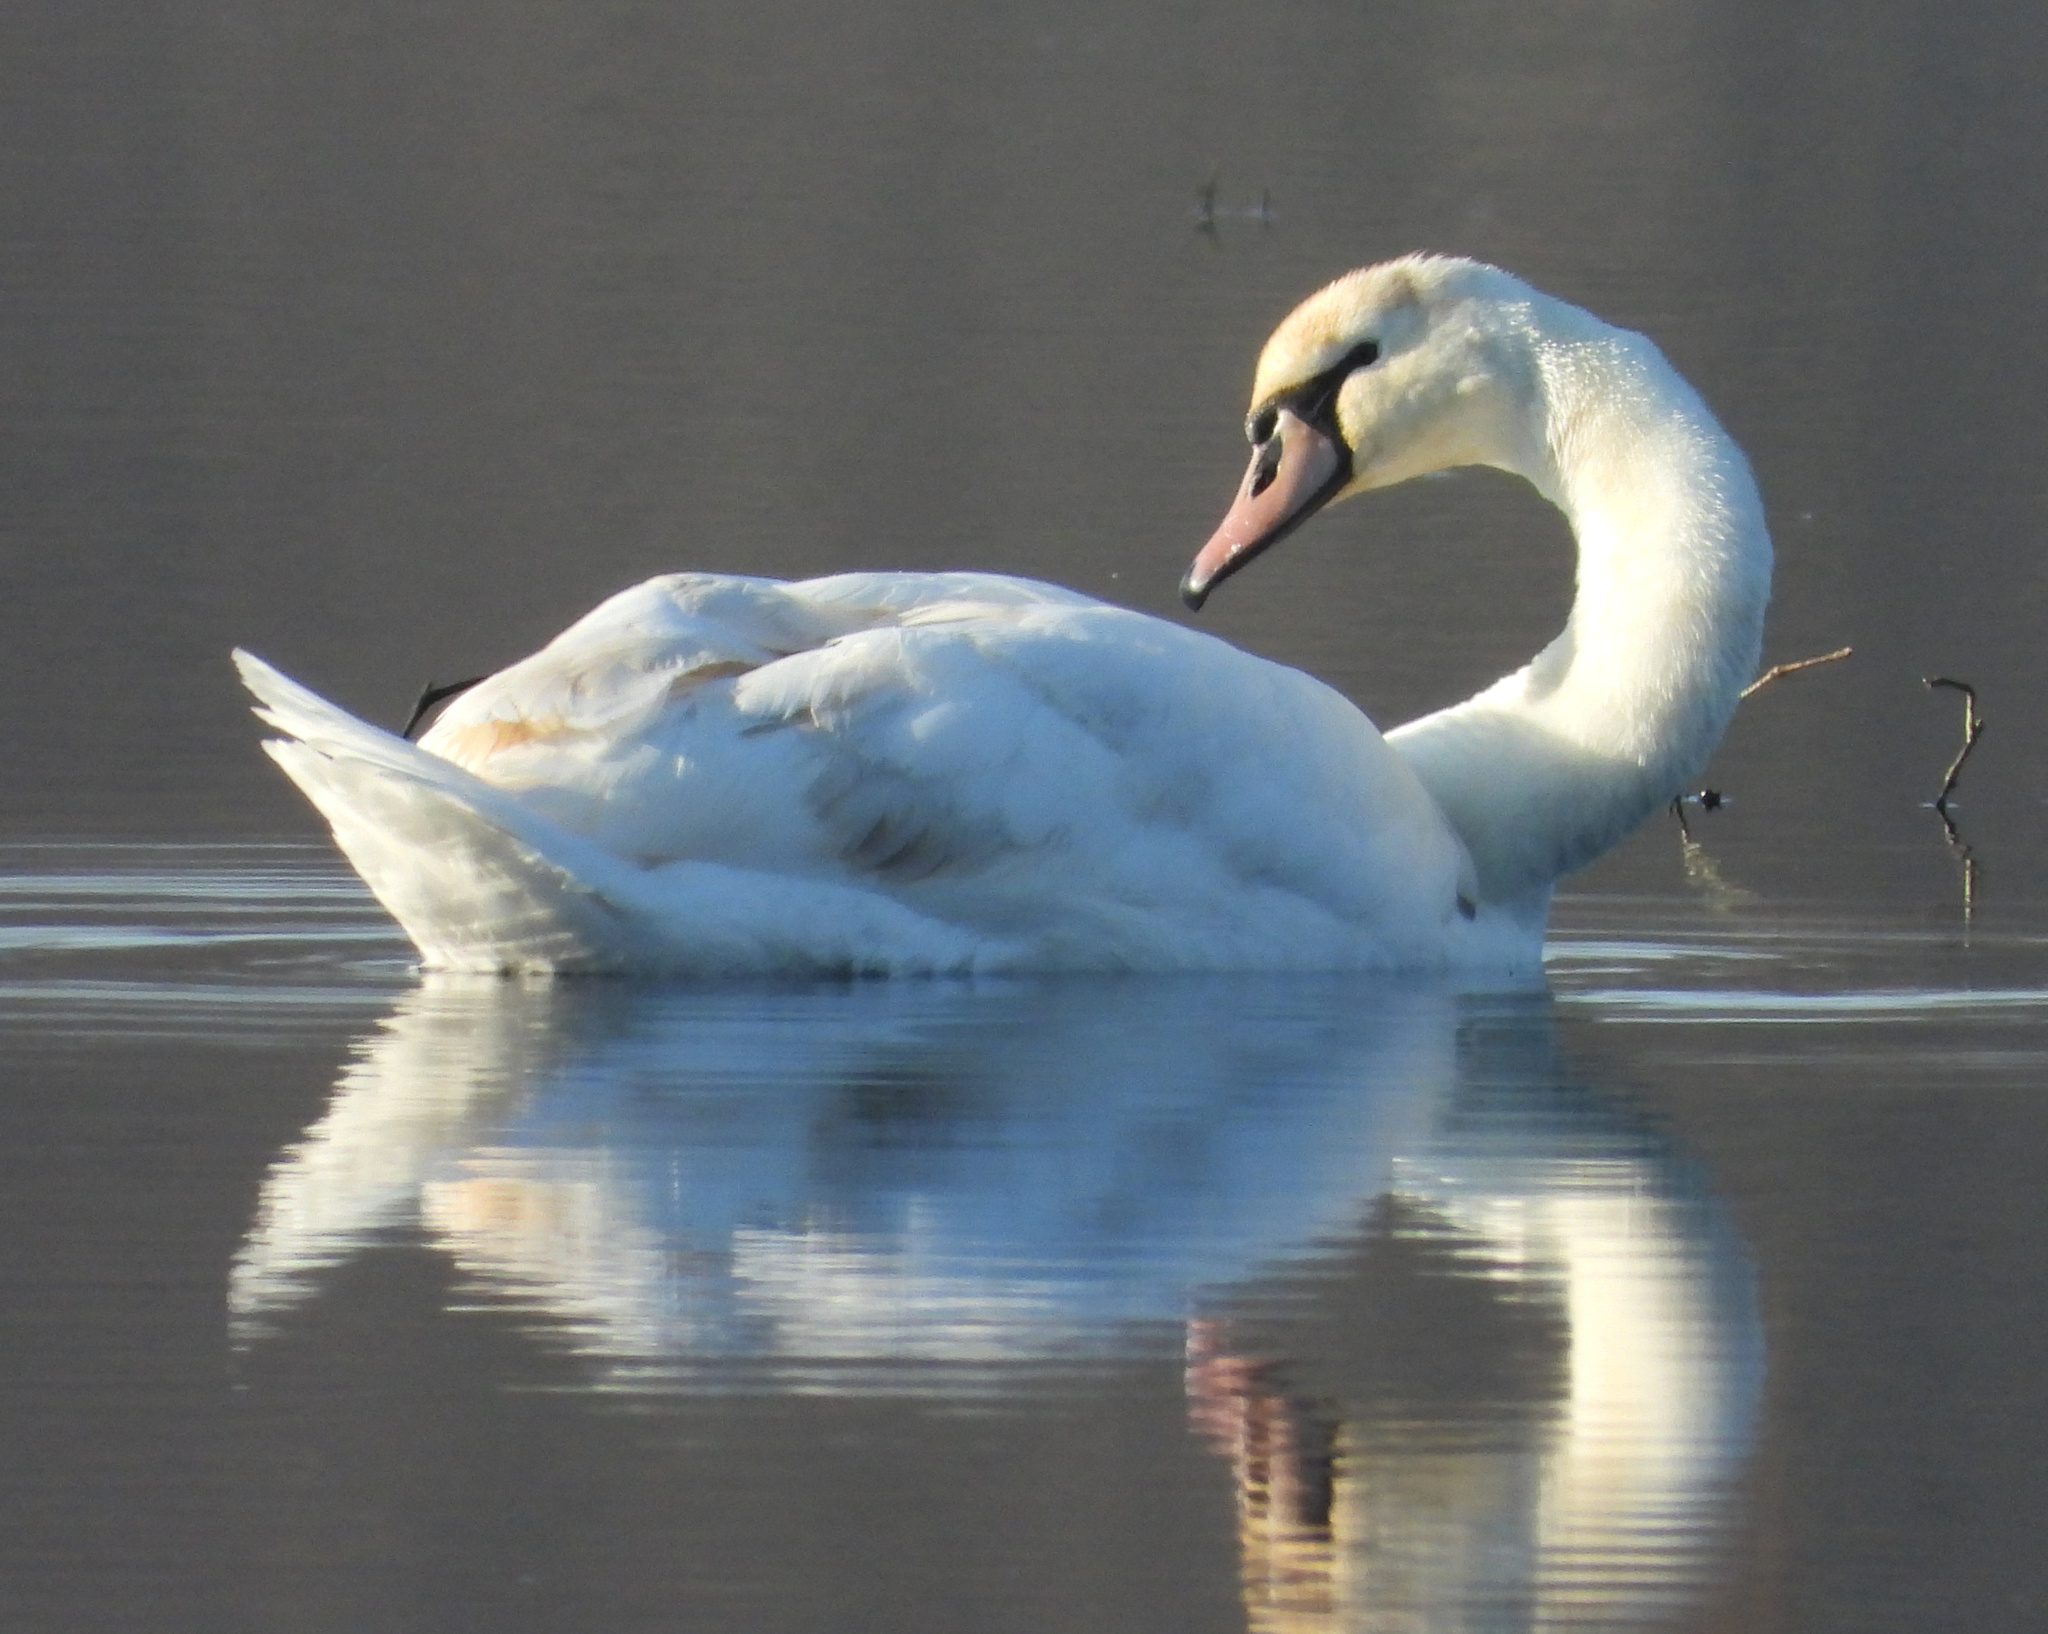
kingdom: Animalia
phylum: Chordata
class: Aves
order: Anseriformes
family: Anatidae
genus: Cygnus
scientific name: Cygnus olor
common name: Mute swan
